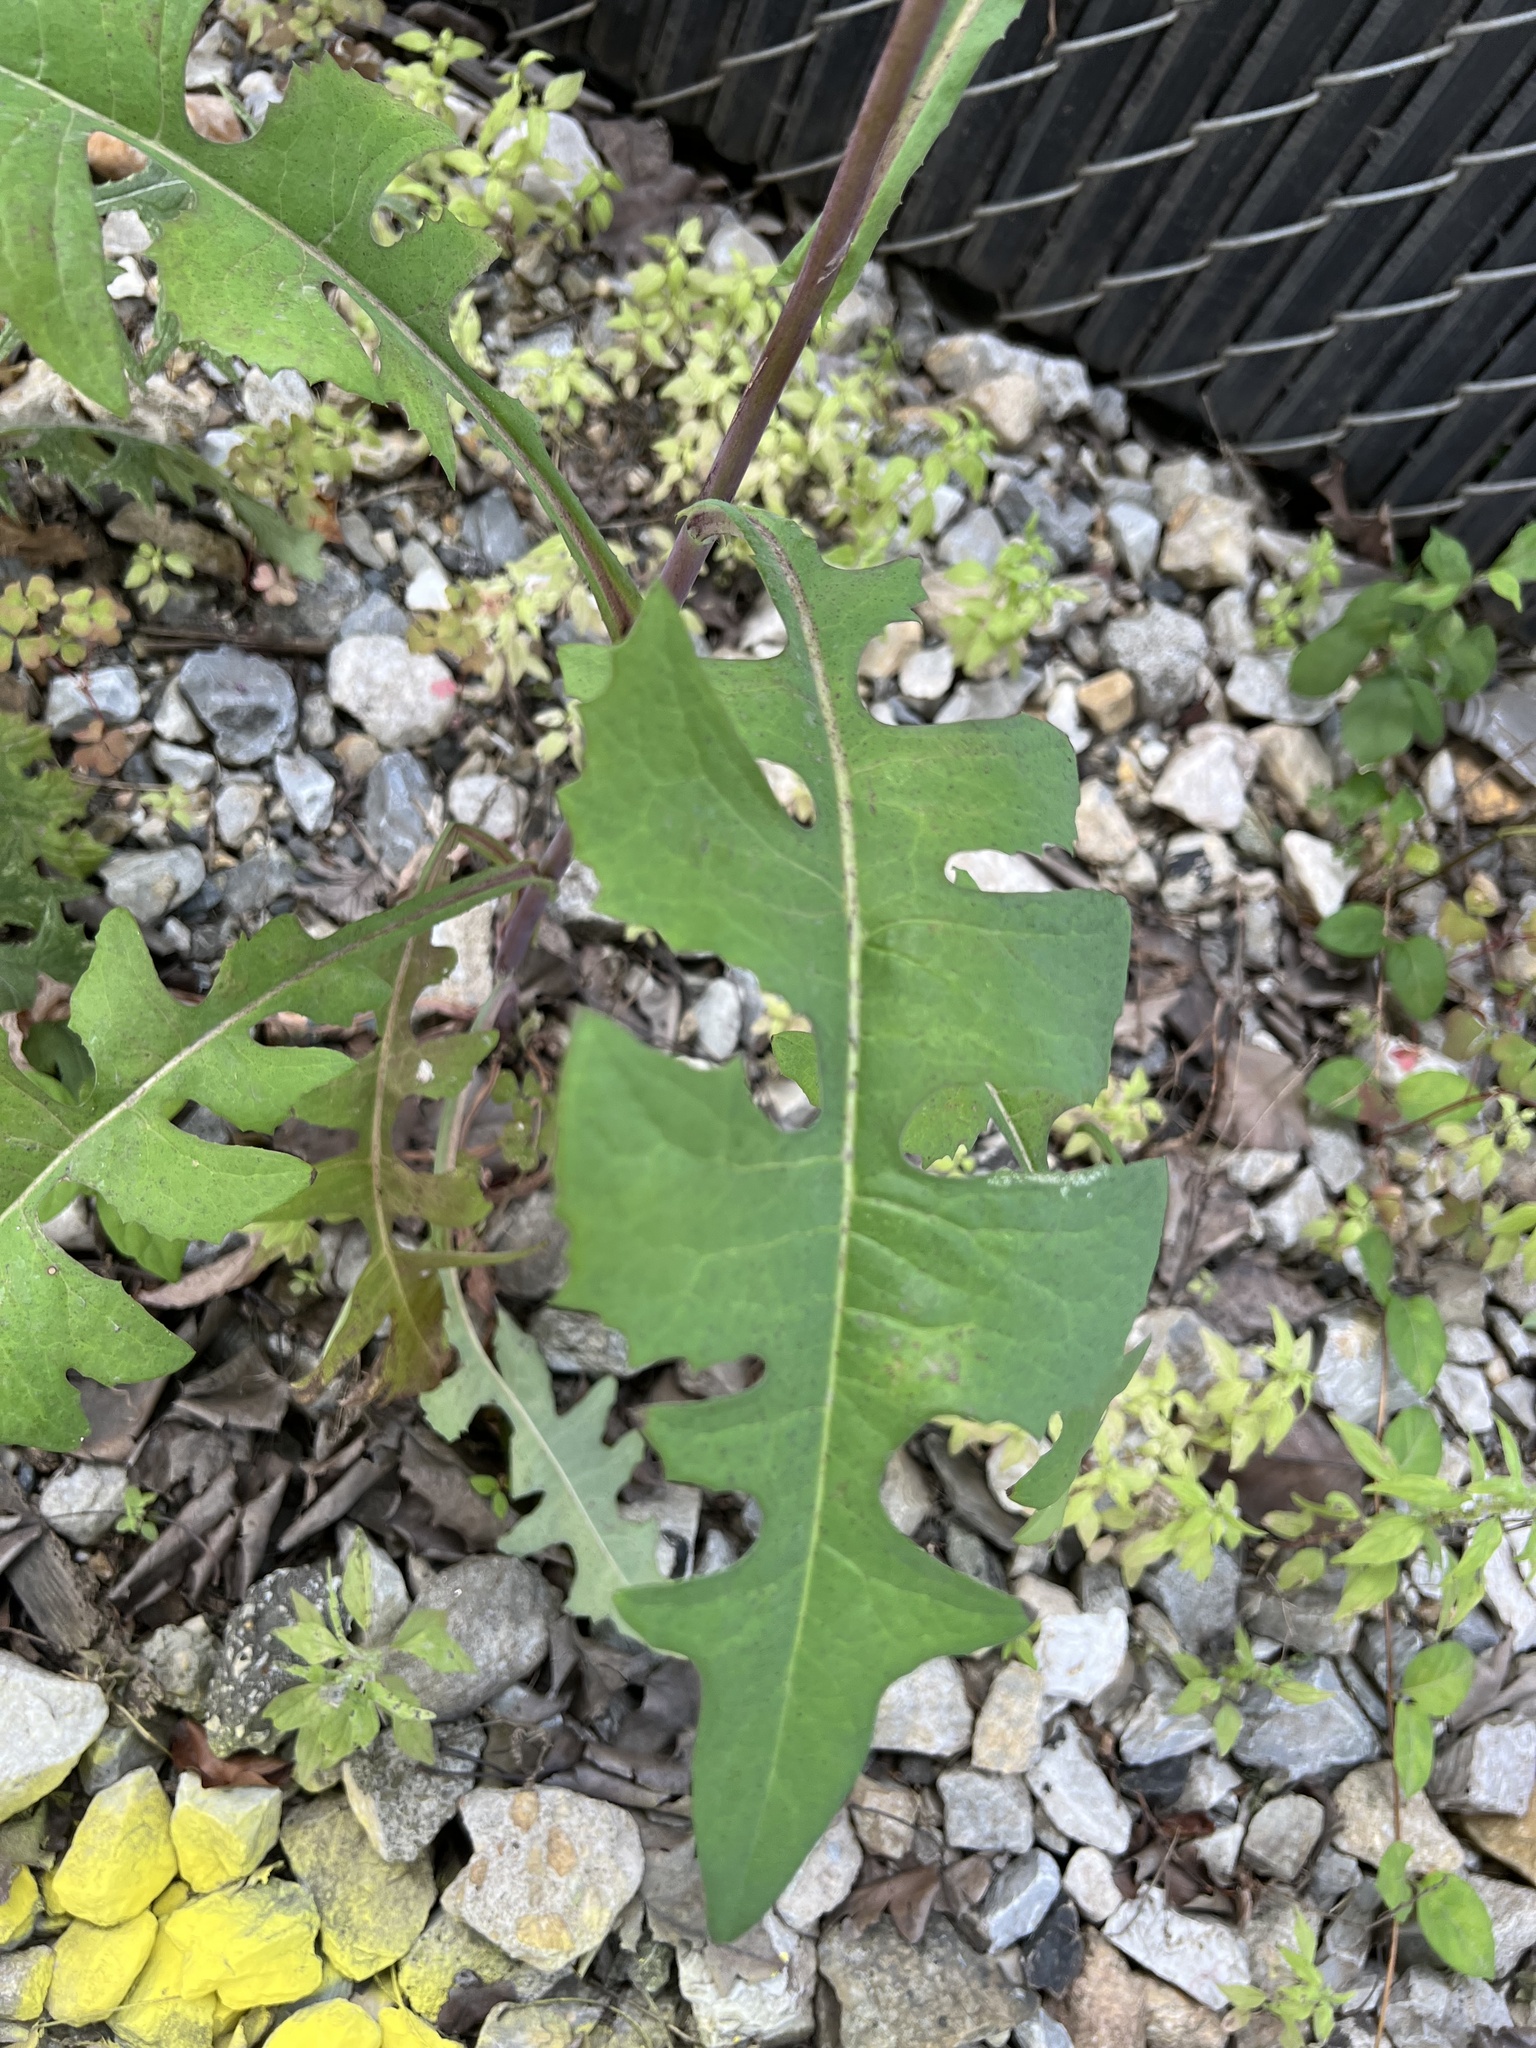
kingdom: Plantae
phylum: Tracheophyta
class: Magnoliopsida
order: Asterales
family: Asteraceae
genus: Lactuca
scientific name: Lactuca canadensis
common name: Canada lettuce
